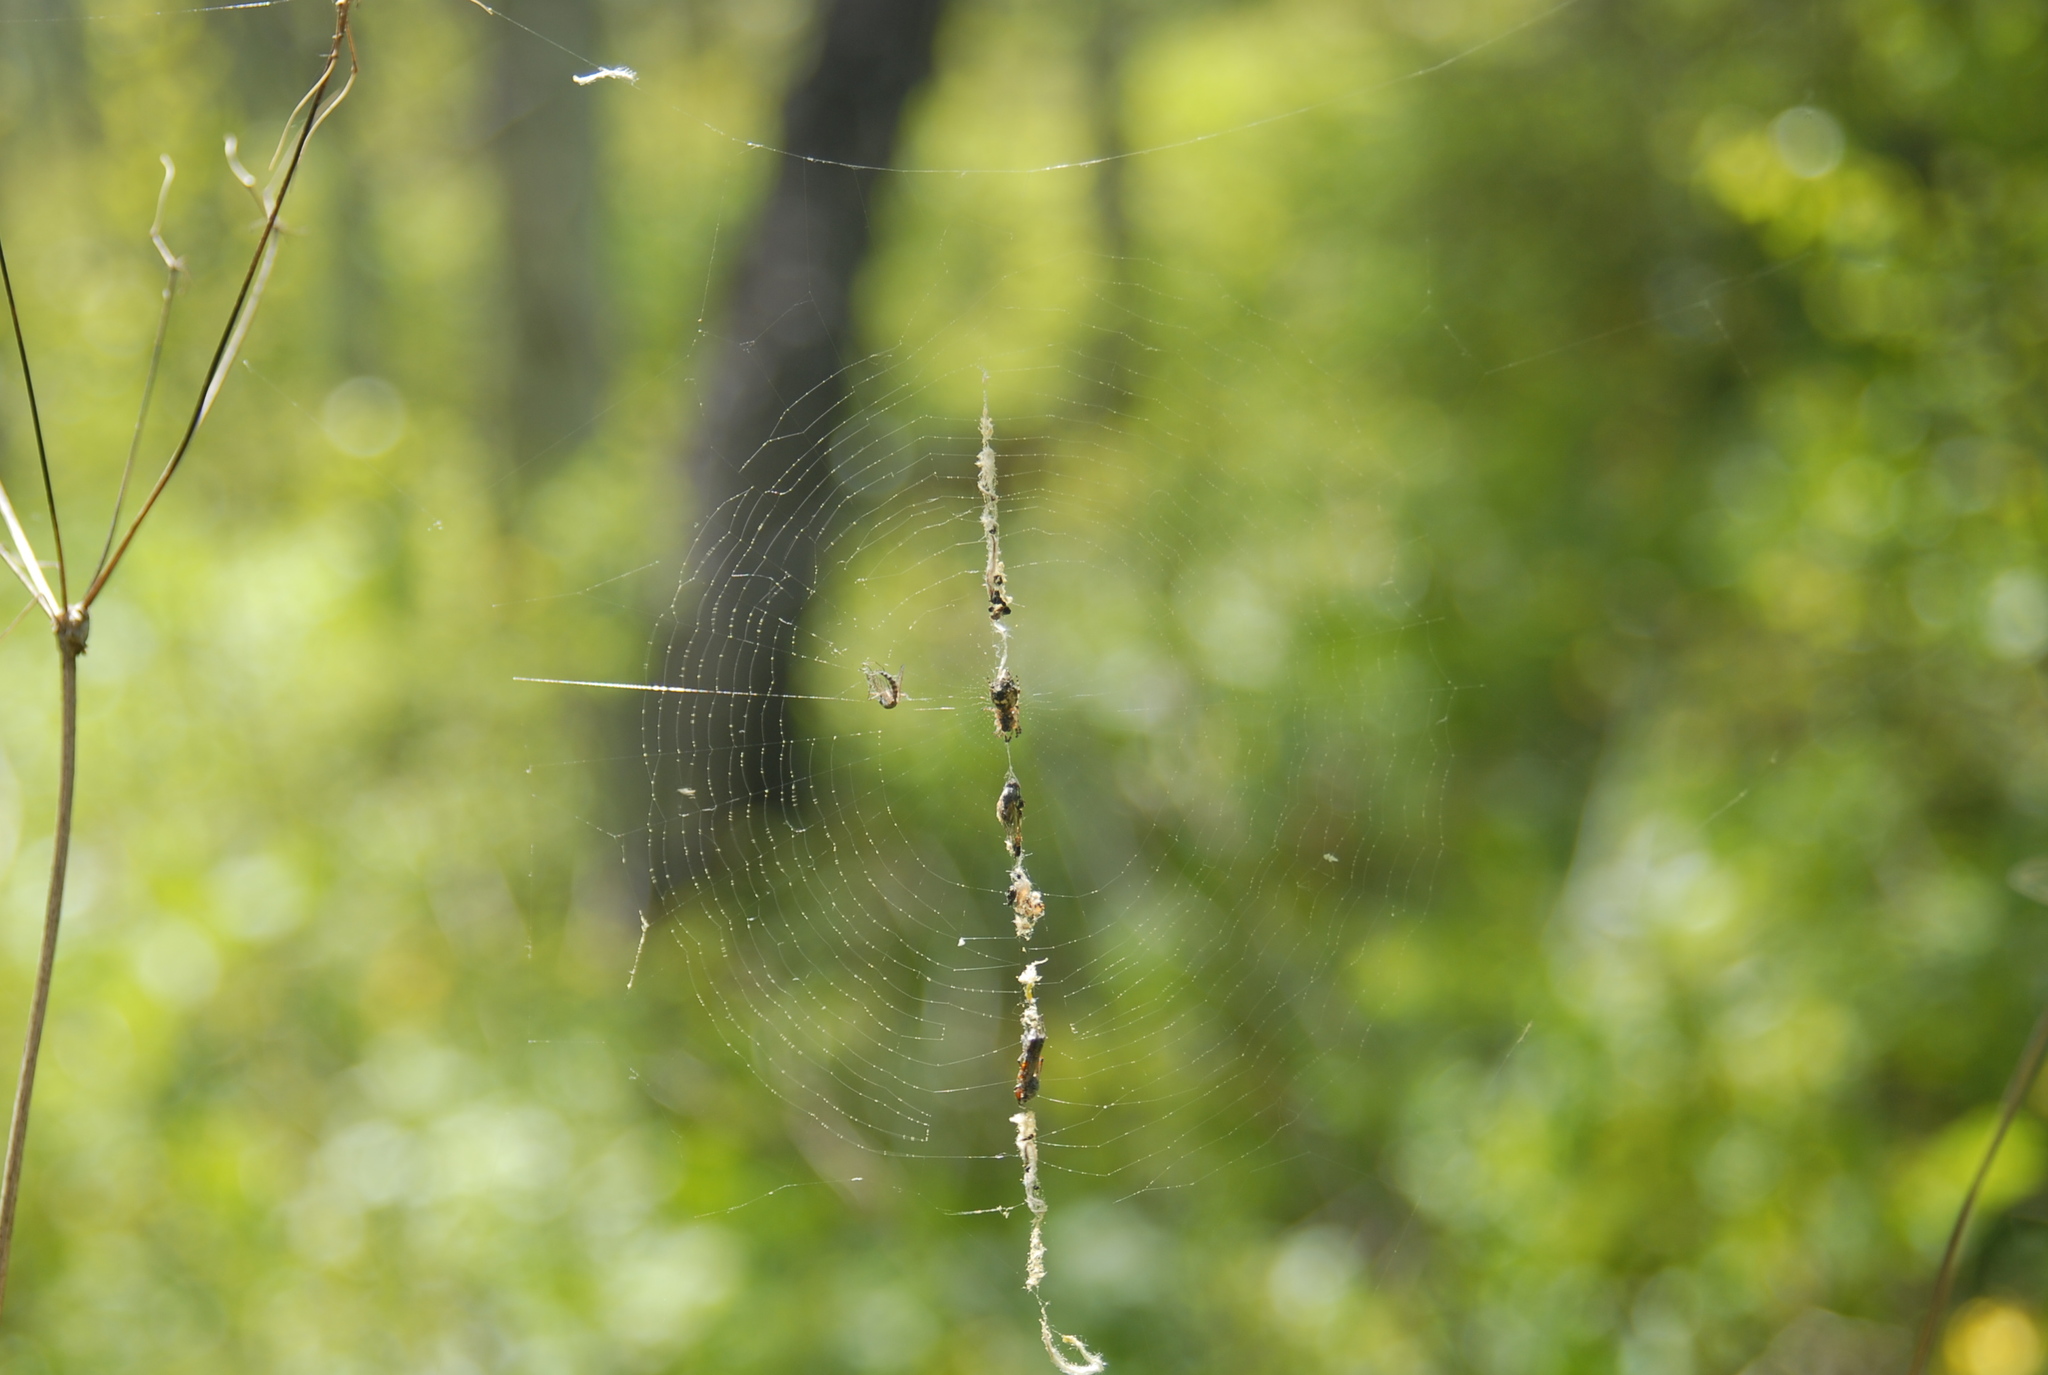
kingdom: Animalia
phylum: Arthropoda
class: Arachnida
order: Araneae
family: Araneidae
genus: Cyclosa
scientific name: Cyclosa conica
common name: Conical trashline orbweaver
